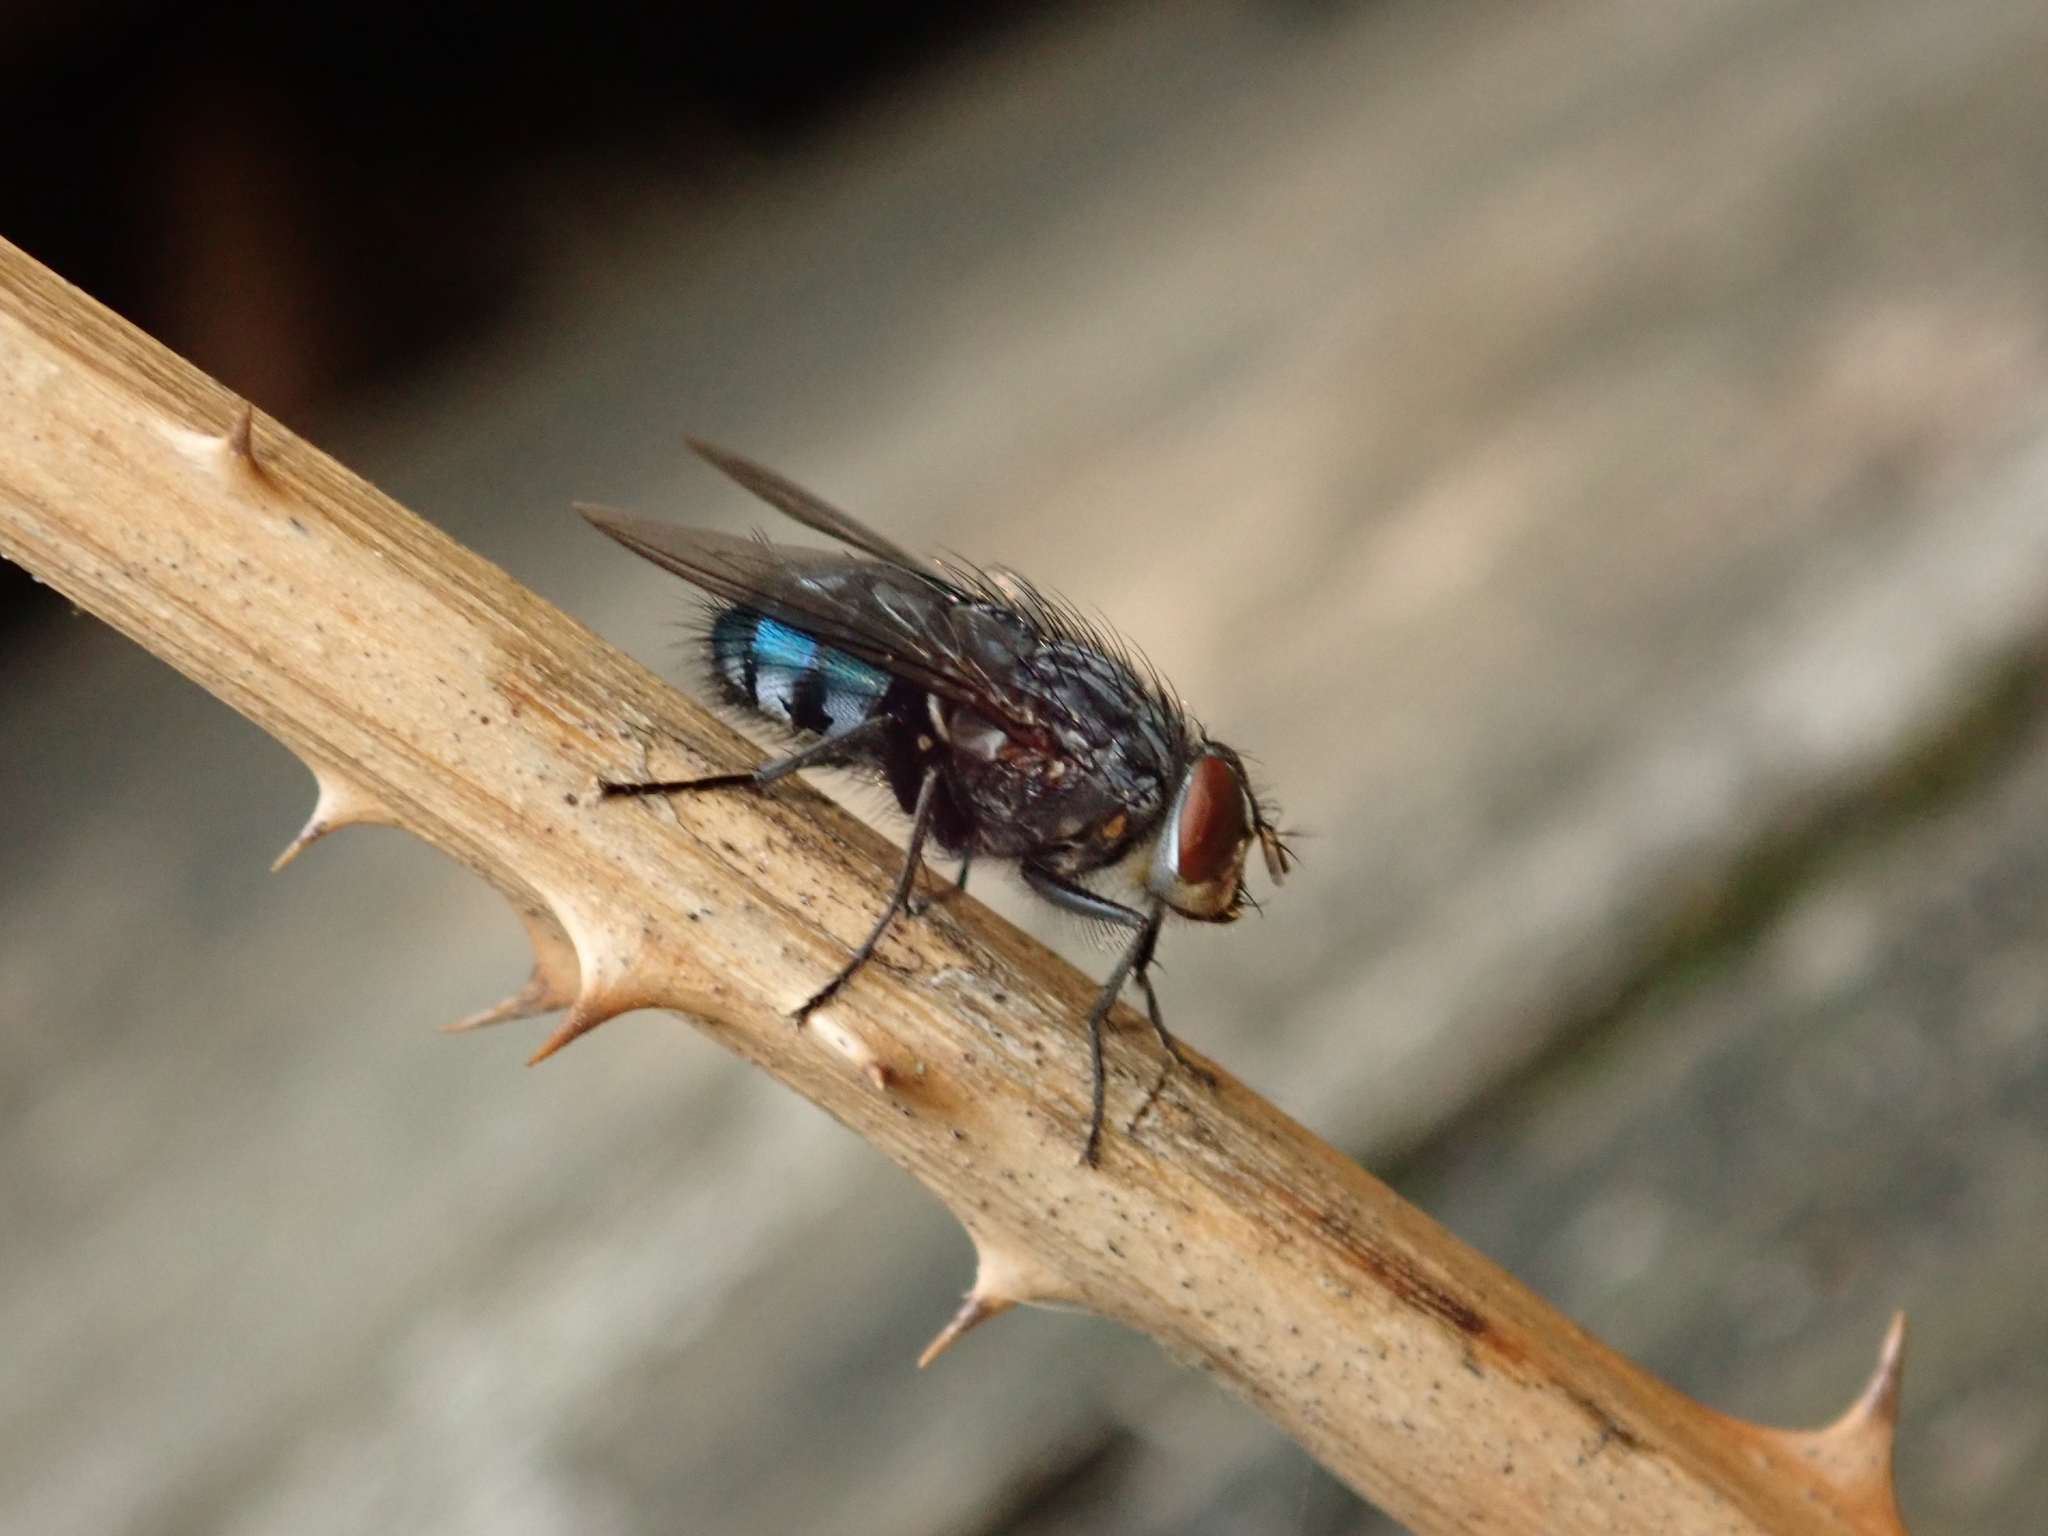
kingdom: Animalia
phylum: Arthropoda
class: Insecta
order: Diptera
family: Calliphoridae
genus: Calliphora
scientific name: Calliphora vicina
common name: Common blow flie
